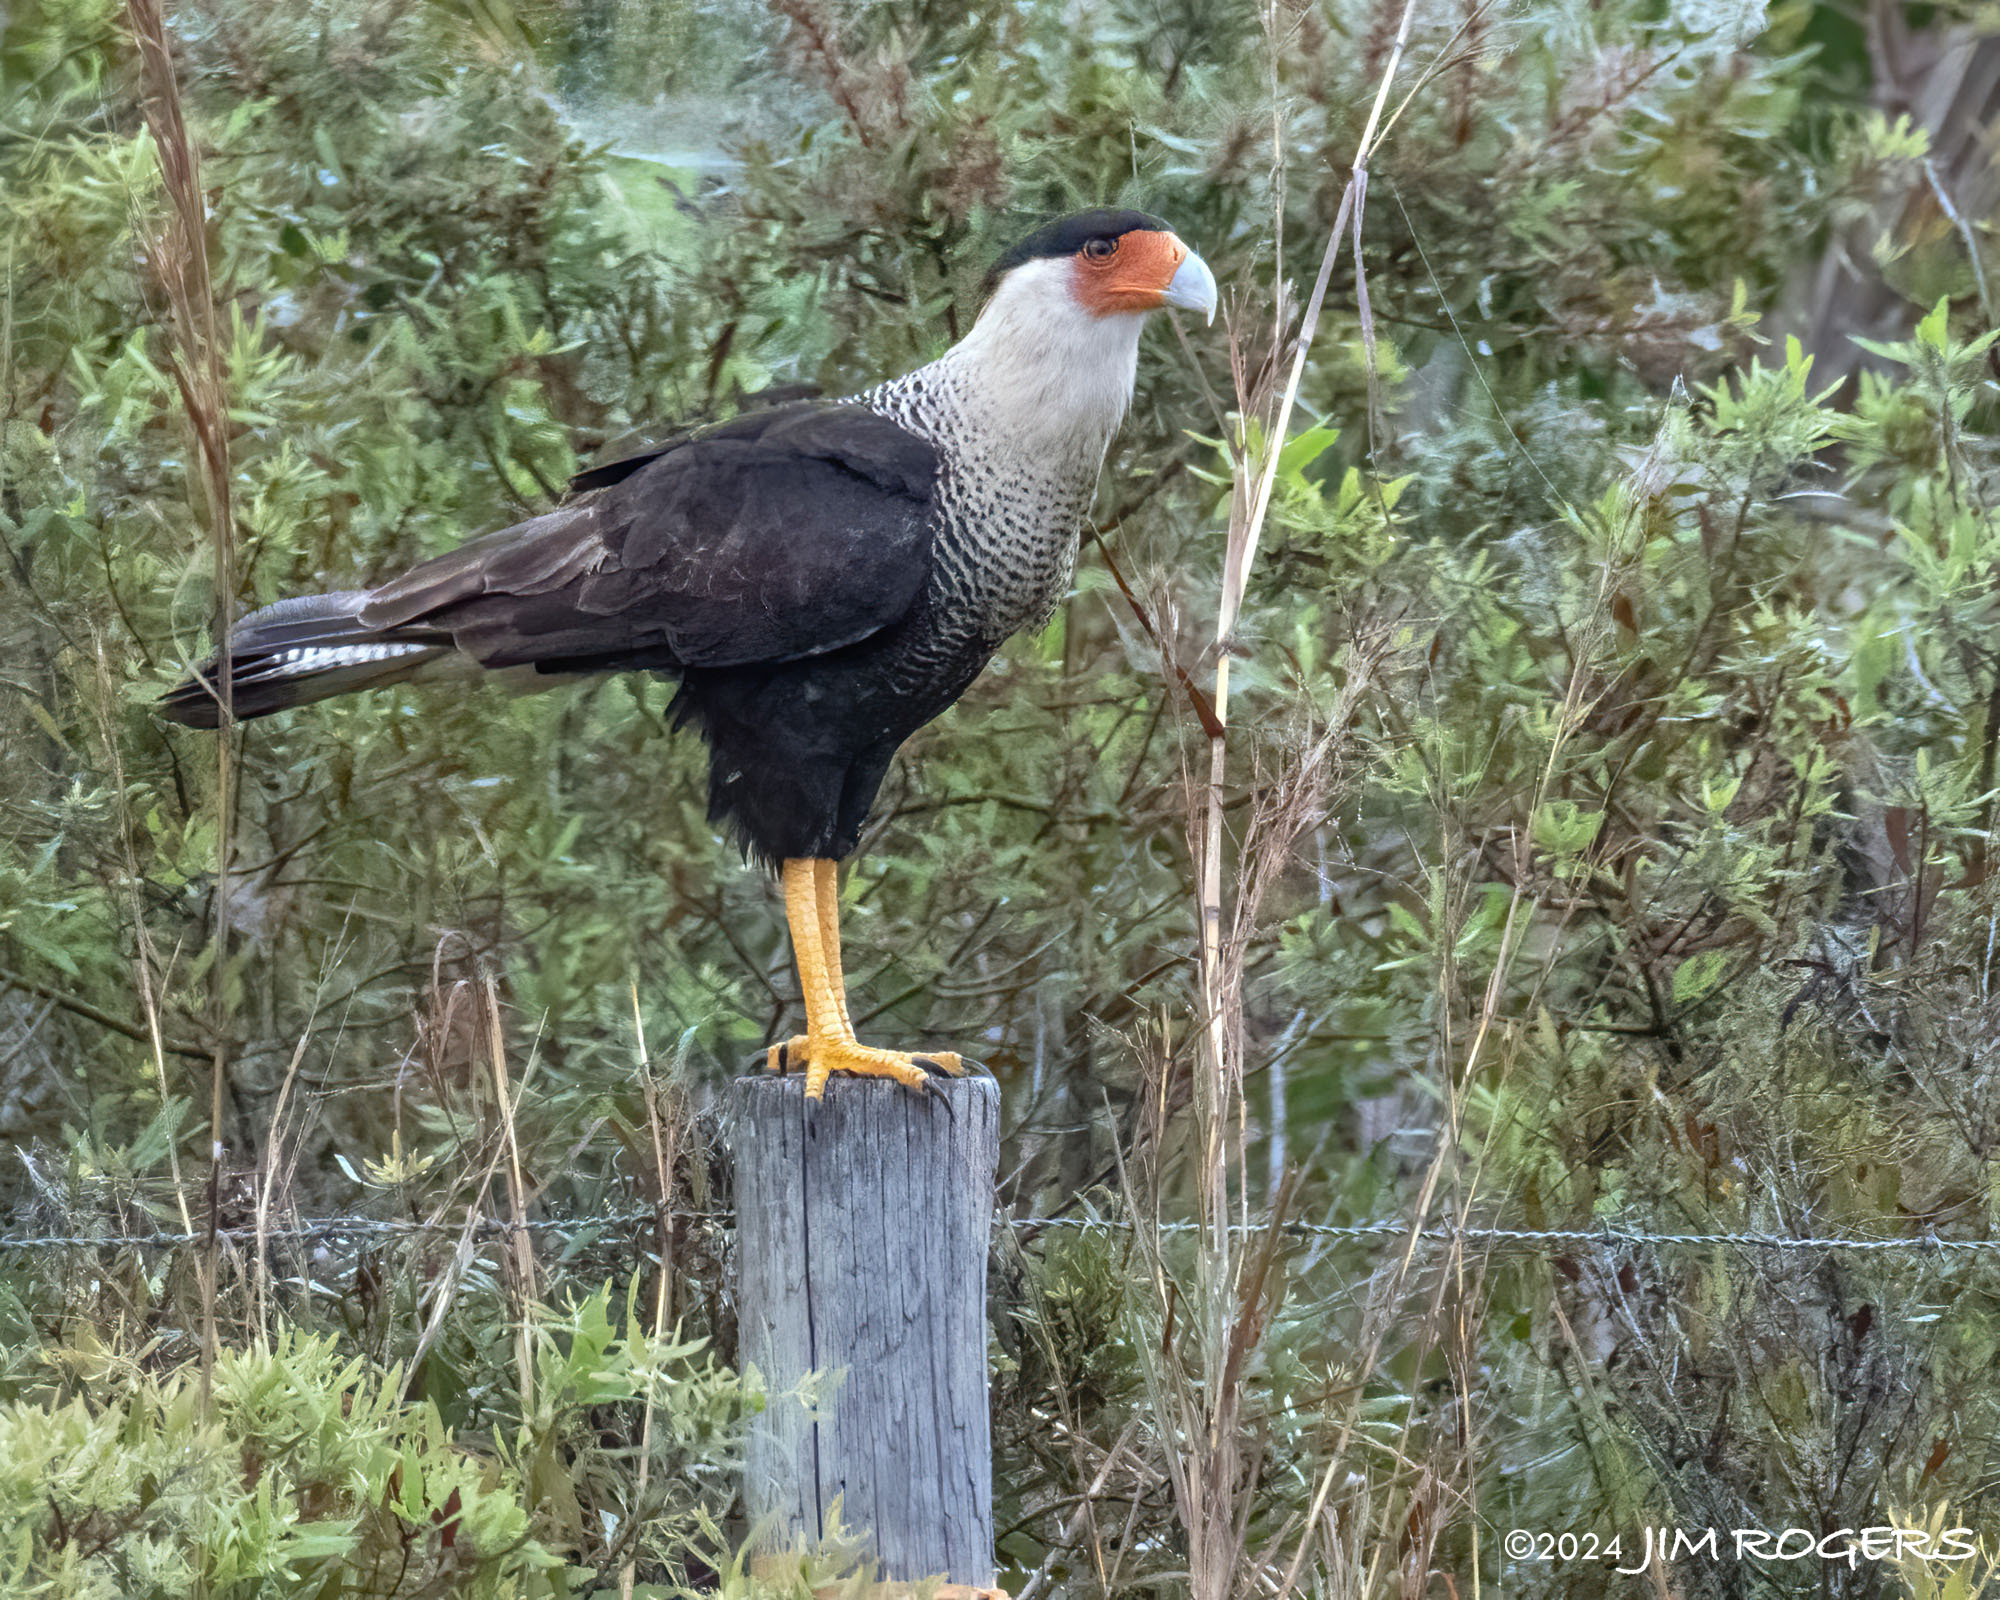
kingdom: Animalia
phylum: Chordata
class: Aves
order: Falconiformes
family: Falconidae
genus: Caracara
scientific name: Caracara plancus
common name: Southern caracara
